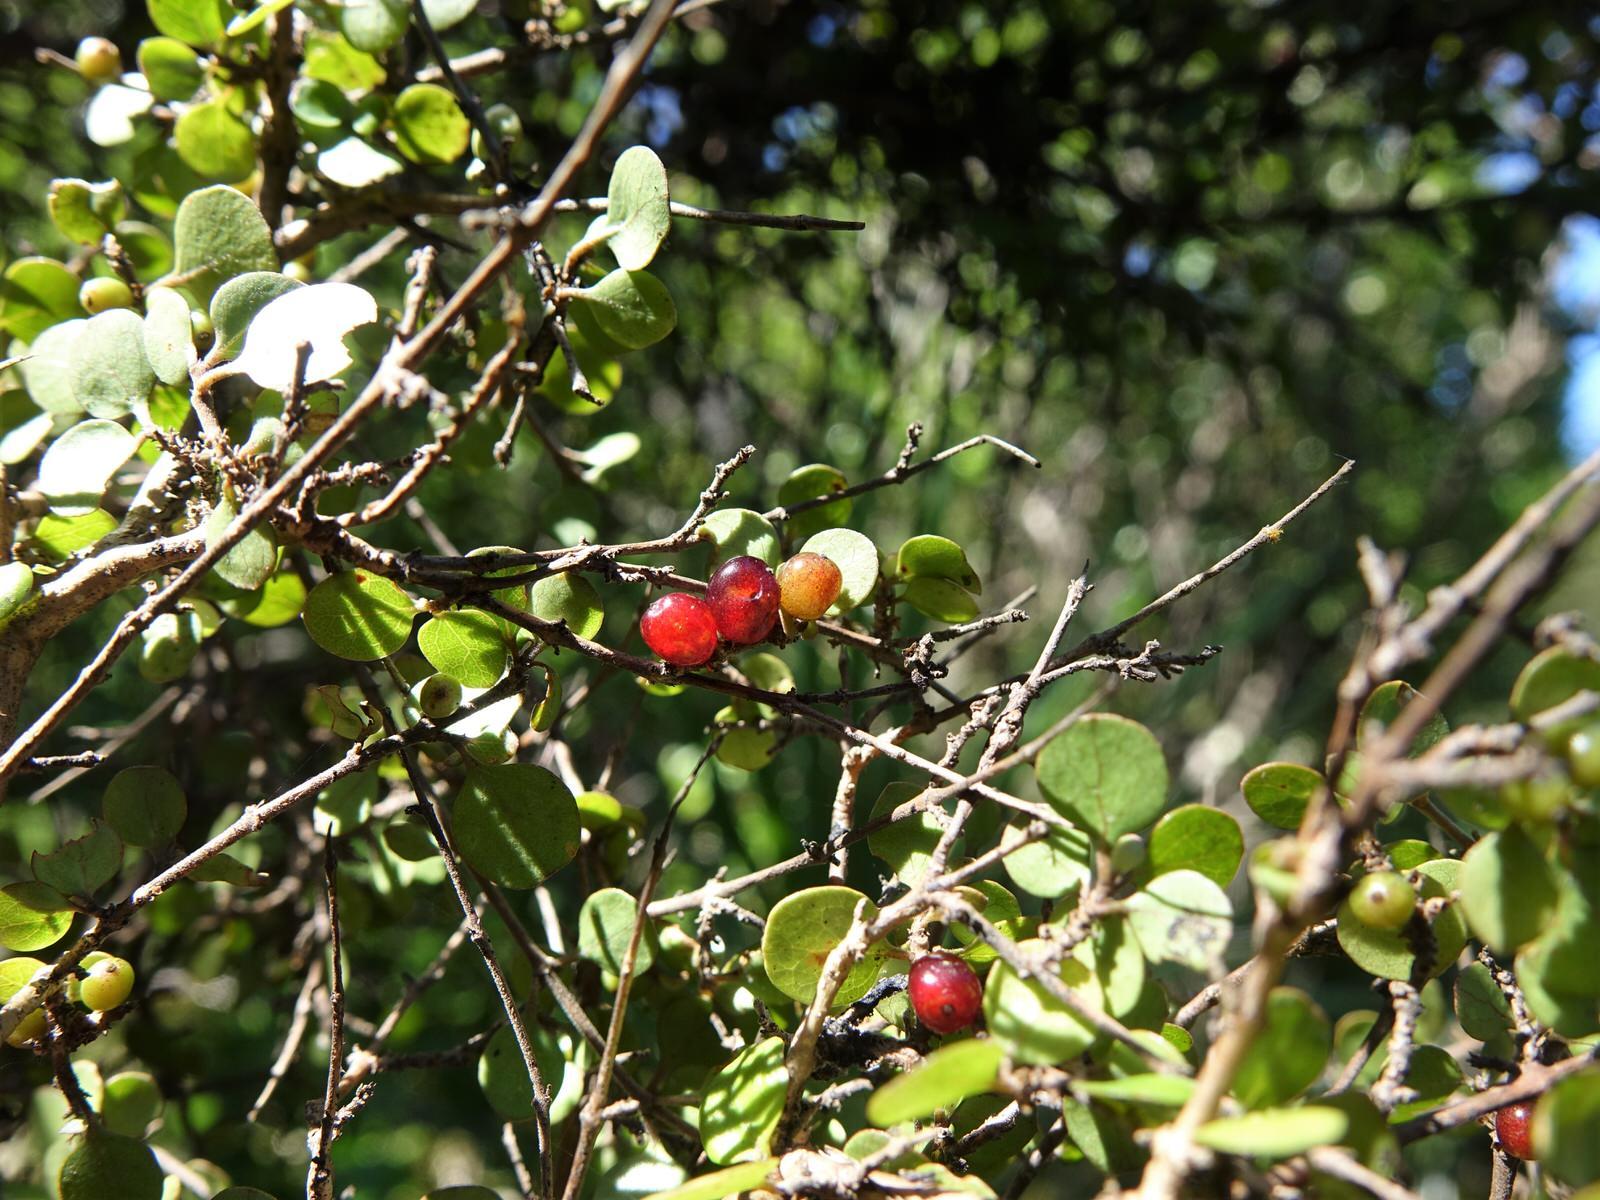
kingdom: Plantae
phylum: Tracheophyta
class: Magnoliopsida
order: Gentianales
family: Rubiaceae
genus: Coprosma
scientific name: Coprosma rhamnoides
